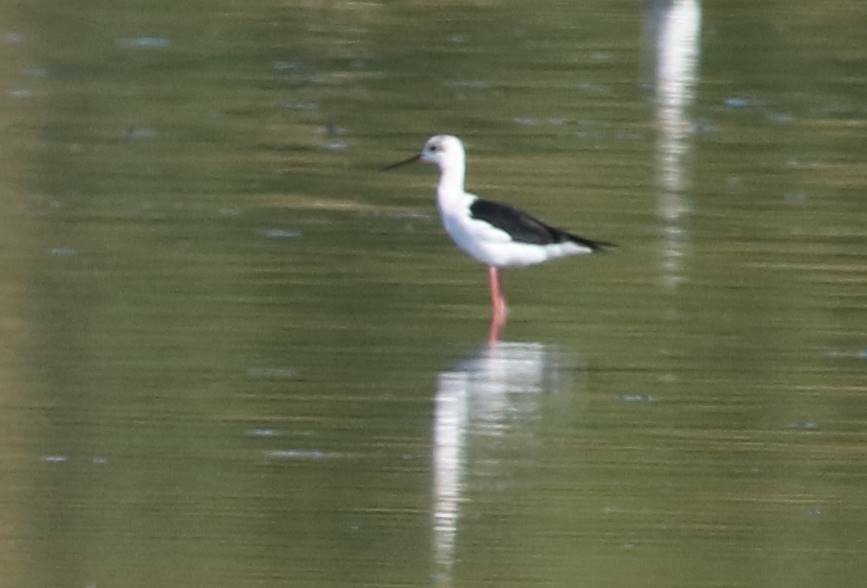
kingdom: Animalia
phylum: Chordata
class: Aves
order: Charadriiformes
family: Recurvirostridae
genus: Himantopus
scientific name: Himantopus himantopus
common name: Black-winged stilt
